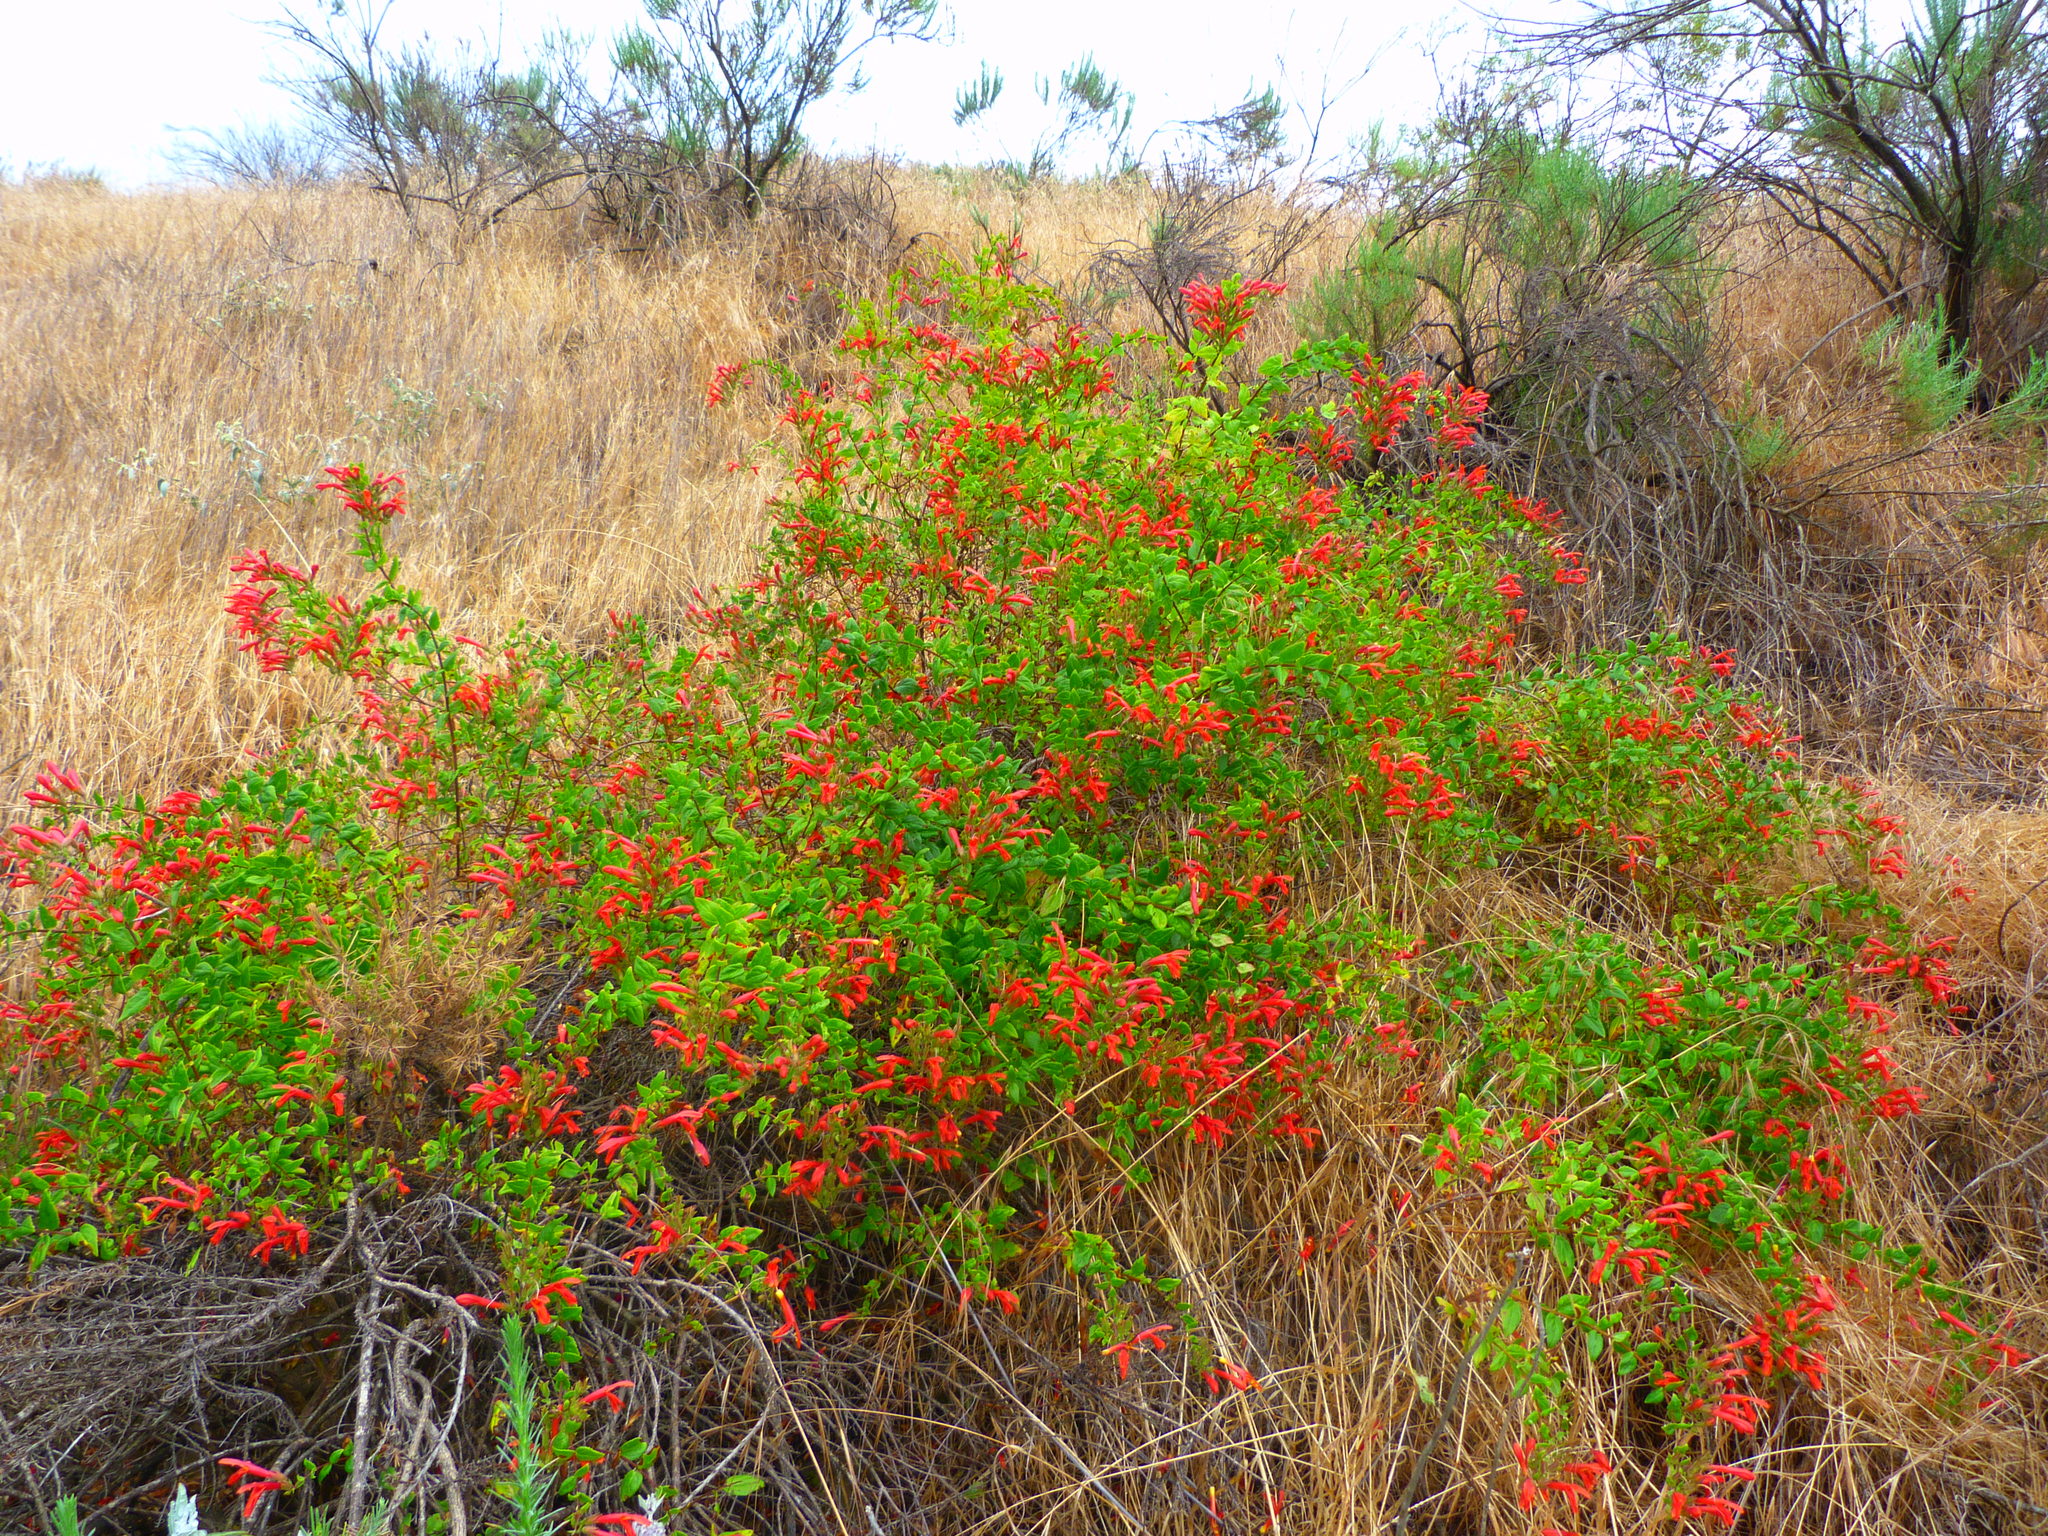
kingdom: Plantae
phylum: Tracheophyta
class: Magnoliopsida
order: Lamiales
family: Plantaginaceae
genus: Keckiella
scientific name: Keckiella cordifolia
